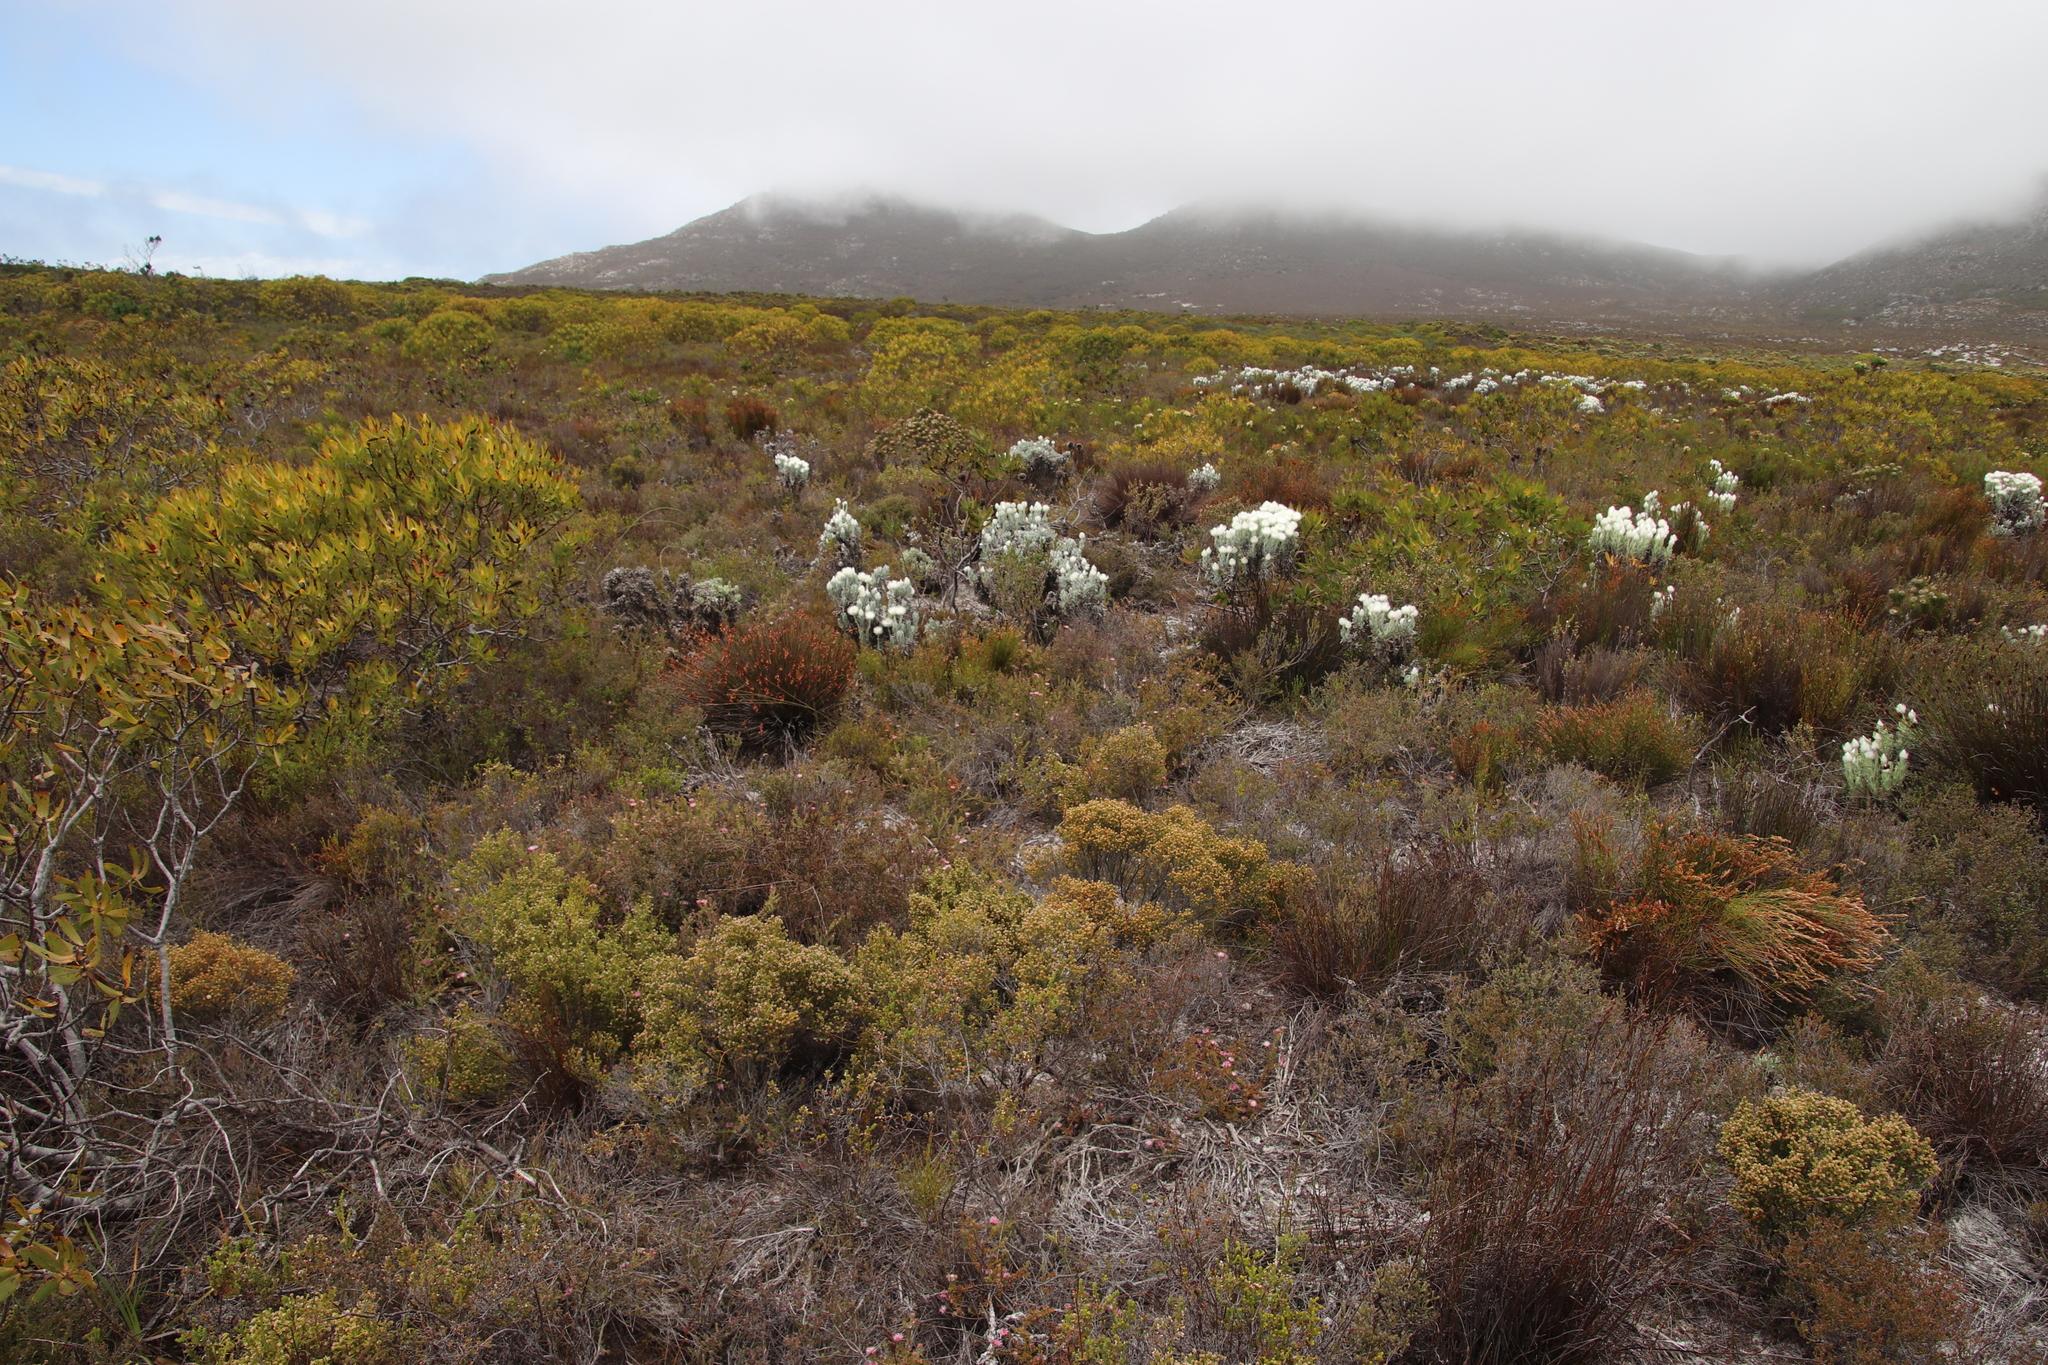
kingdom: Plantae
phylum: Tracheophyta
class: Magnoliopsida
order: Proteales
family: Proteaceae
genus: Diastella
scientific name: Diastella divaricata
